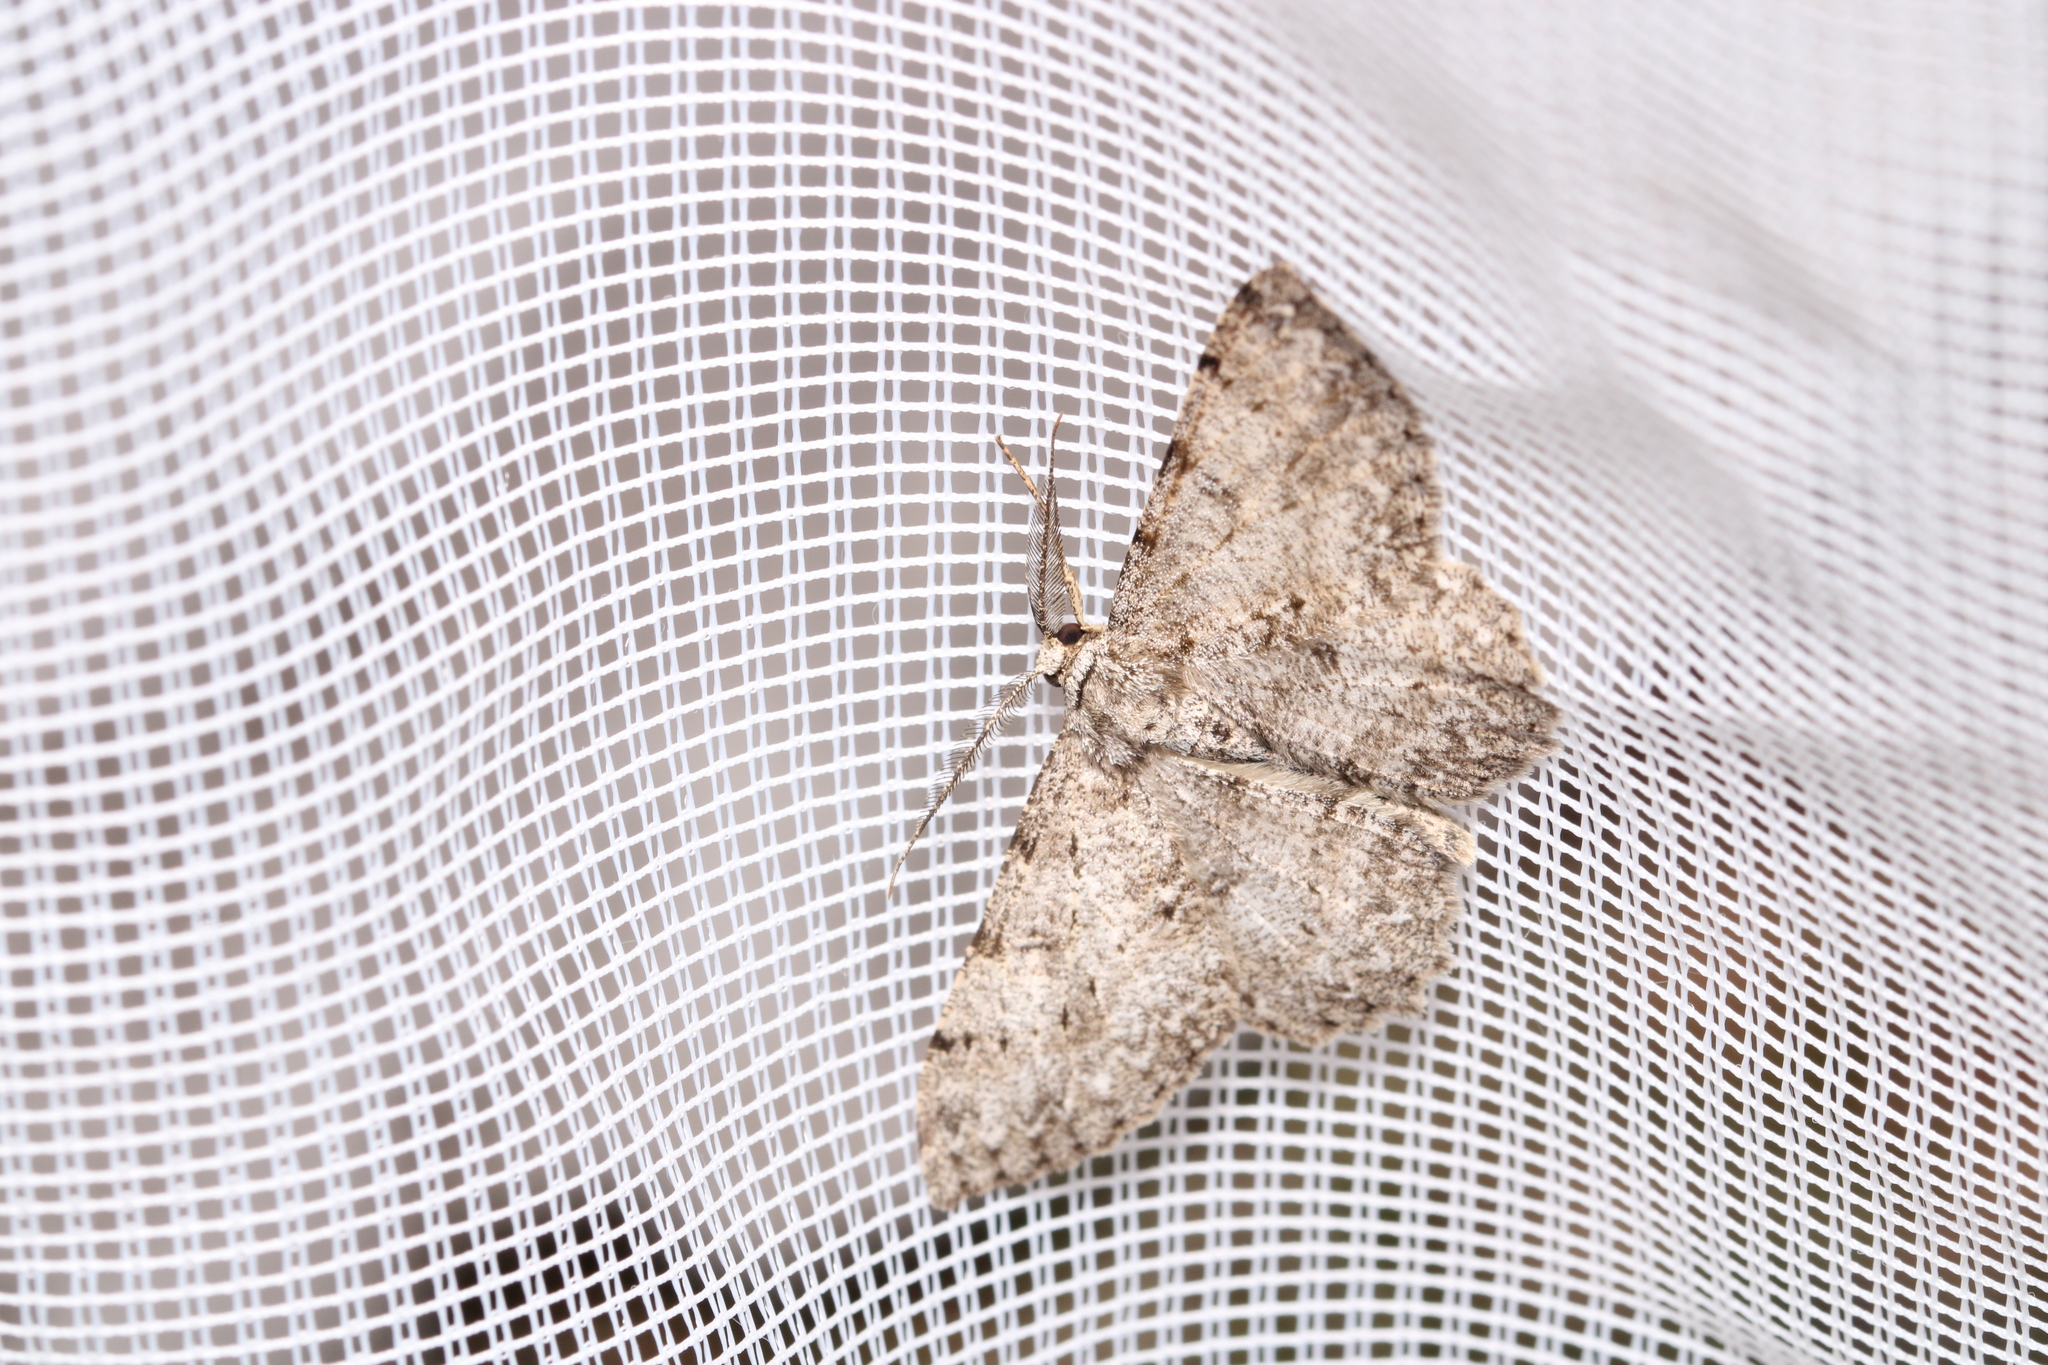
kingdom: Animalia
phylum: Arthropoda
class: Insecta
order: Lepidoptera
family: Geometridae
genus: Hypomecis
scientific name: Hypomecis punctinalis
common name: Pale oak beauty
